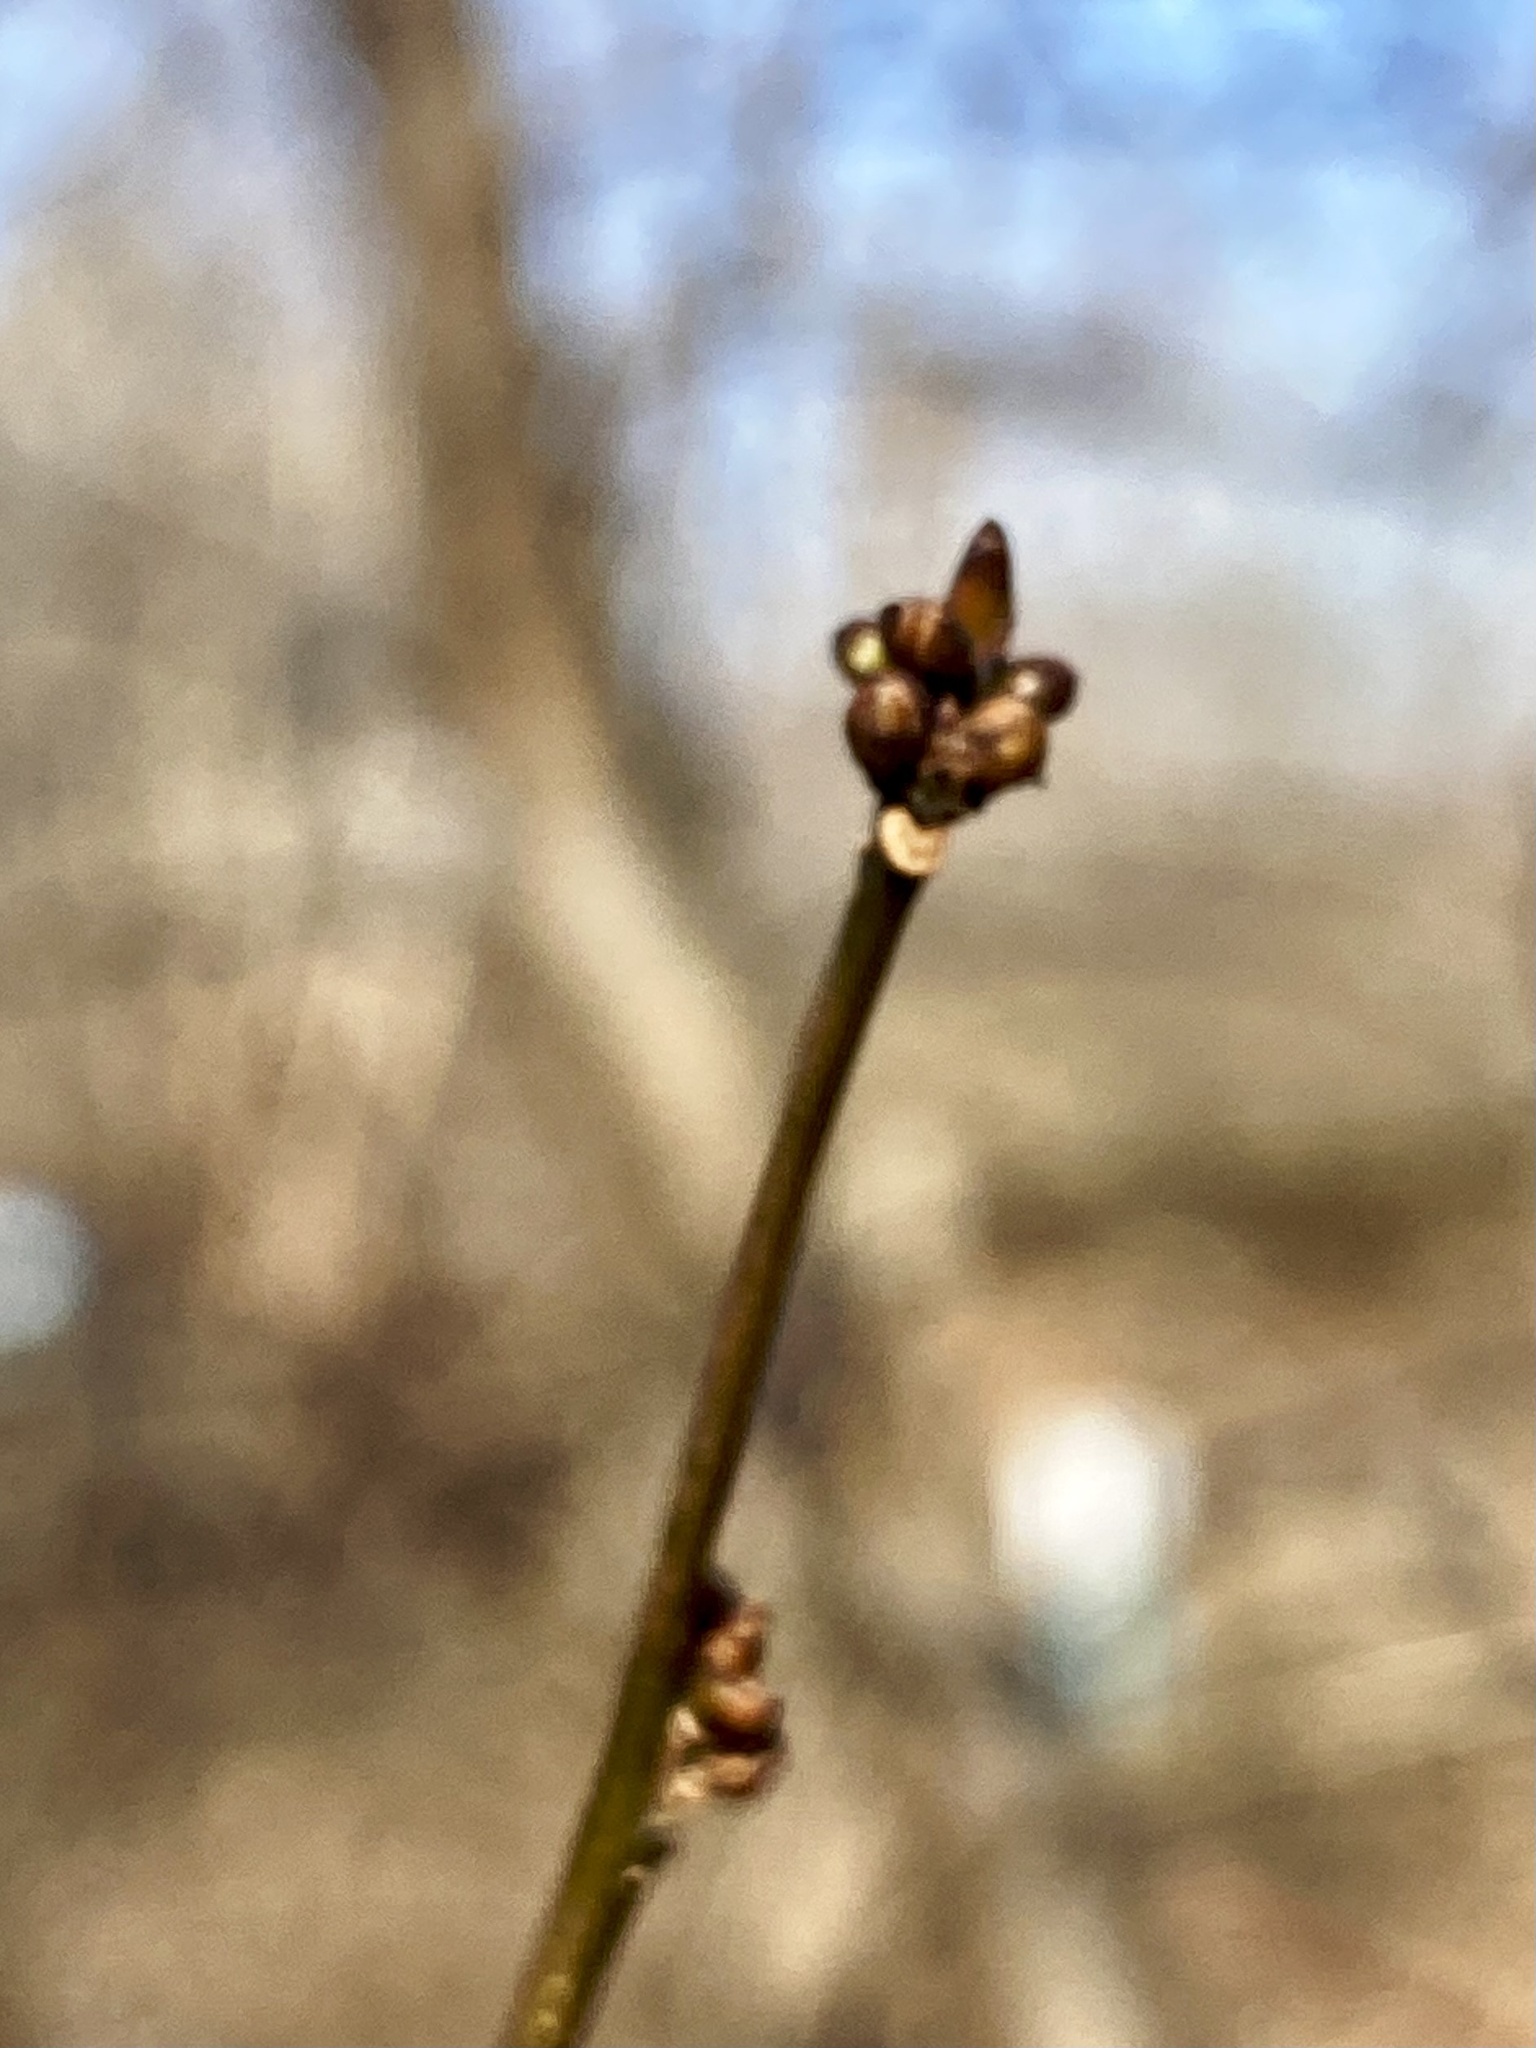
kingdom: Plantae
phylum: Tracheophyta
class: Magnoliopsida
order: Laurales
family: Lauraceae
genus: Lindera
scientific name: Lindera benzoin
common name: Spicebush
